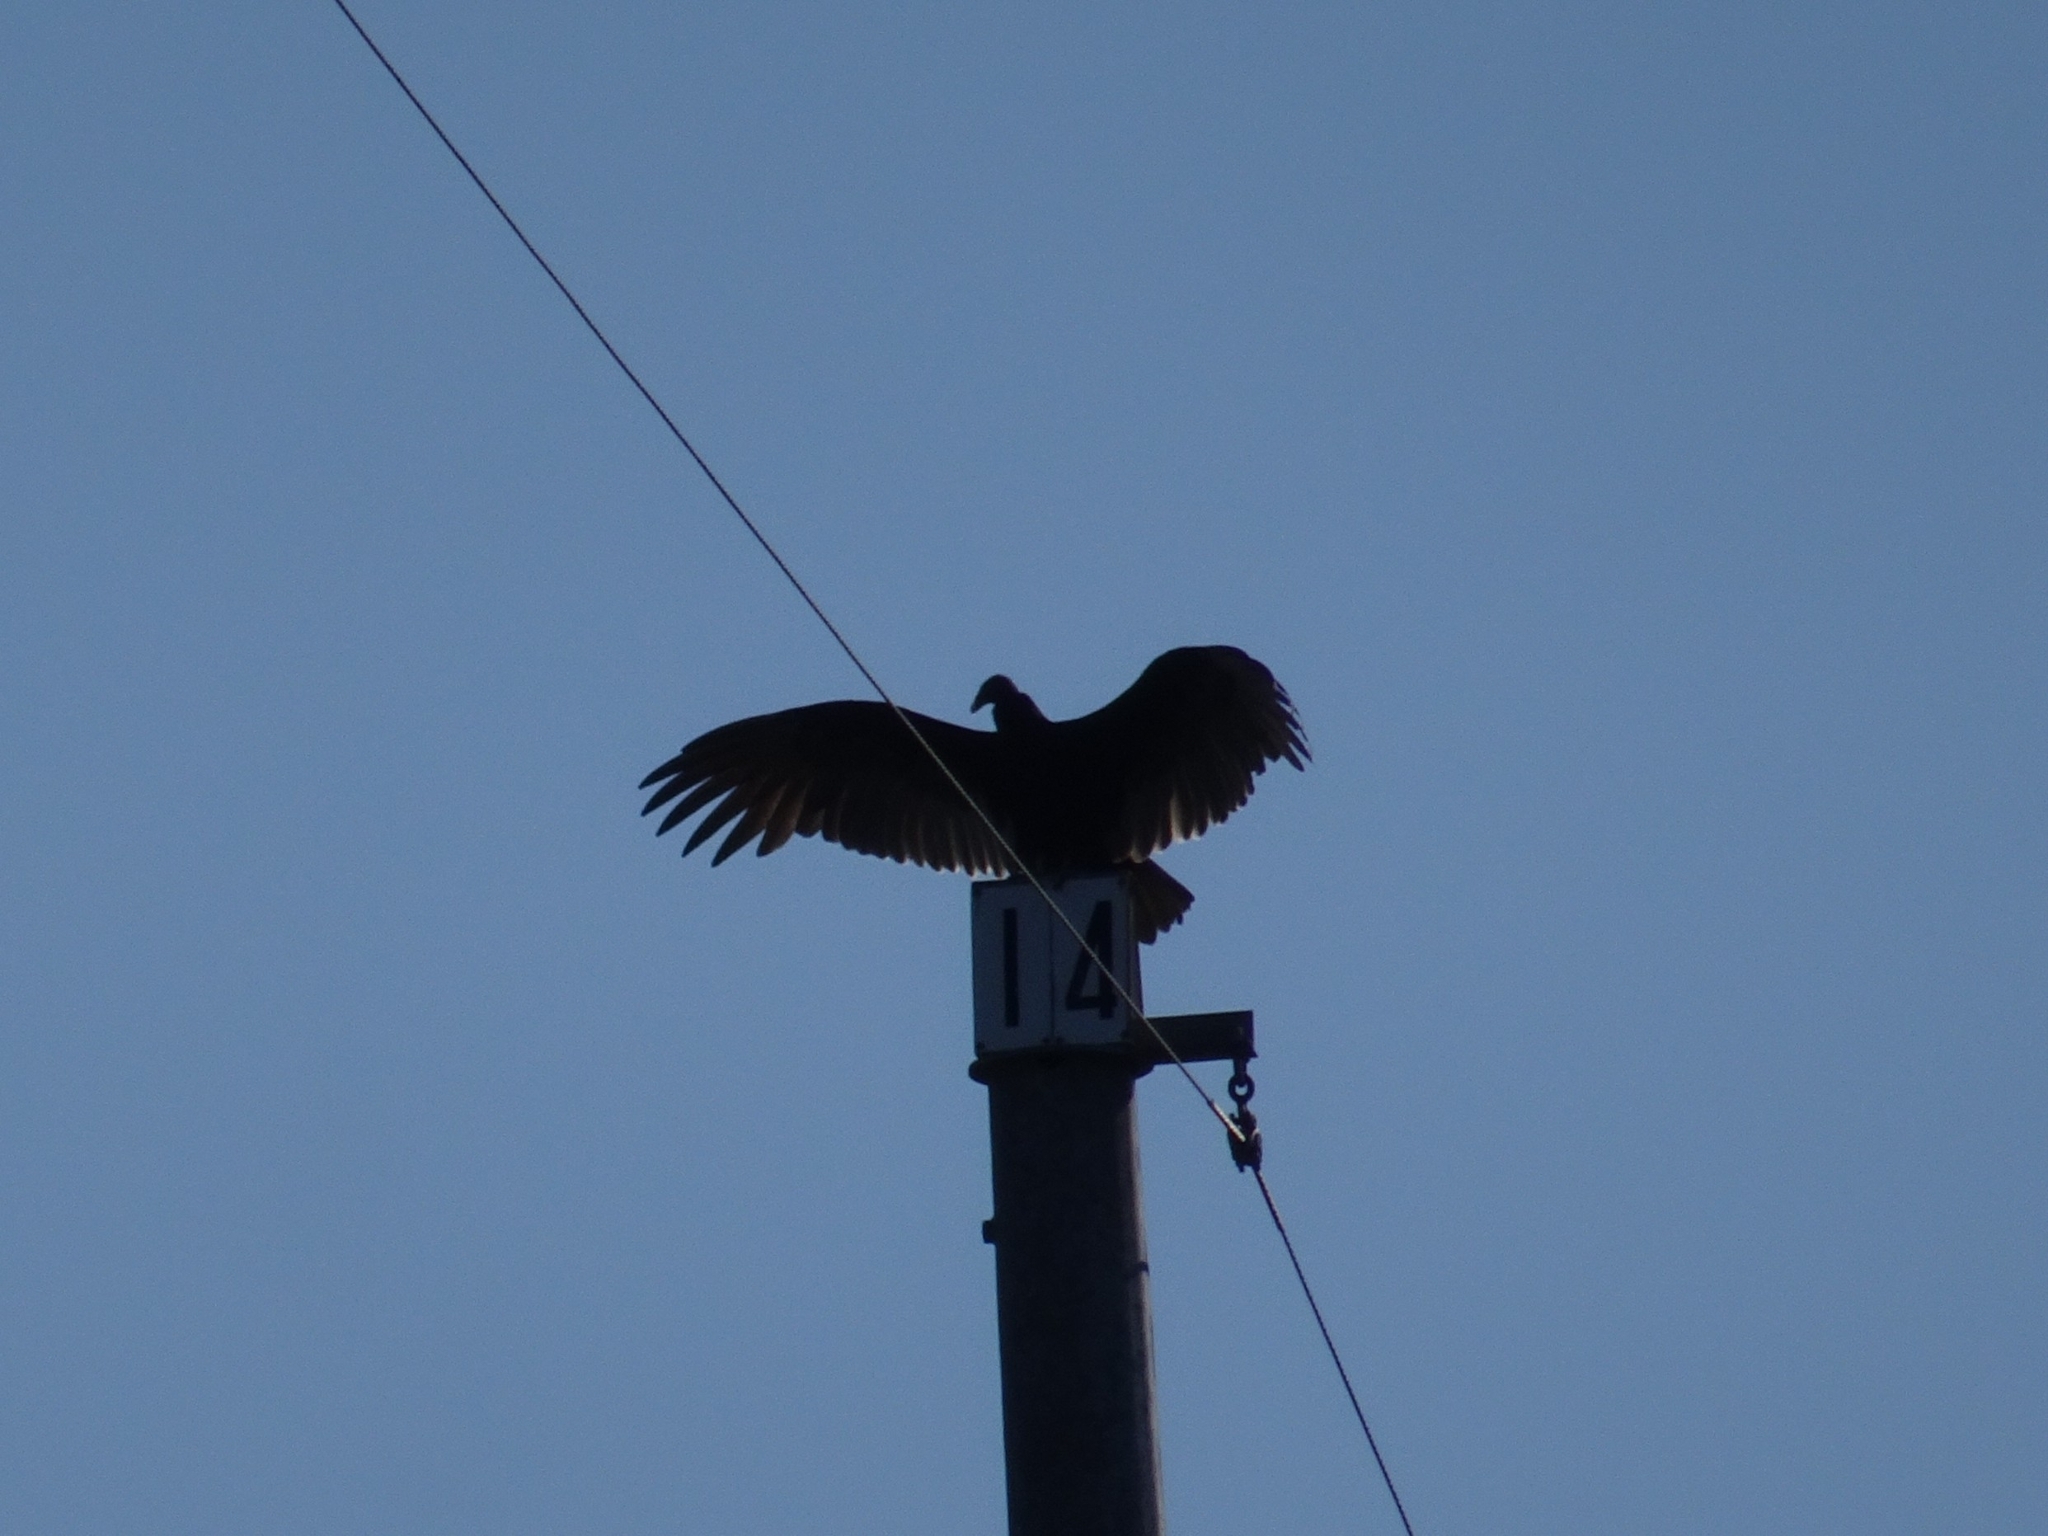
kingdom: Animalia
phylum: Chordata
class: Aves
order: Accipitriformes
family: Cathartidae
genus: Cathartes
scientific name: Cathartes aura
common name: Turkey vulture
